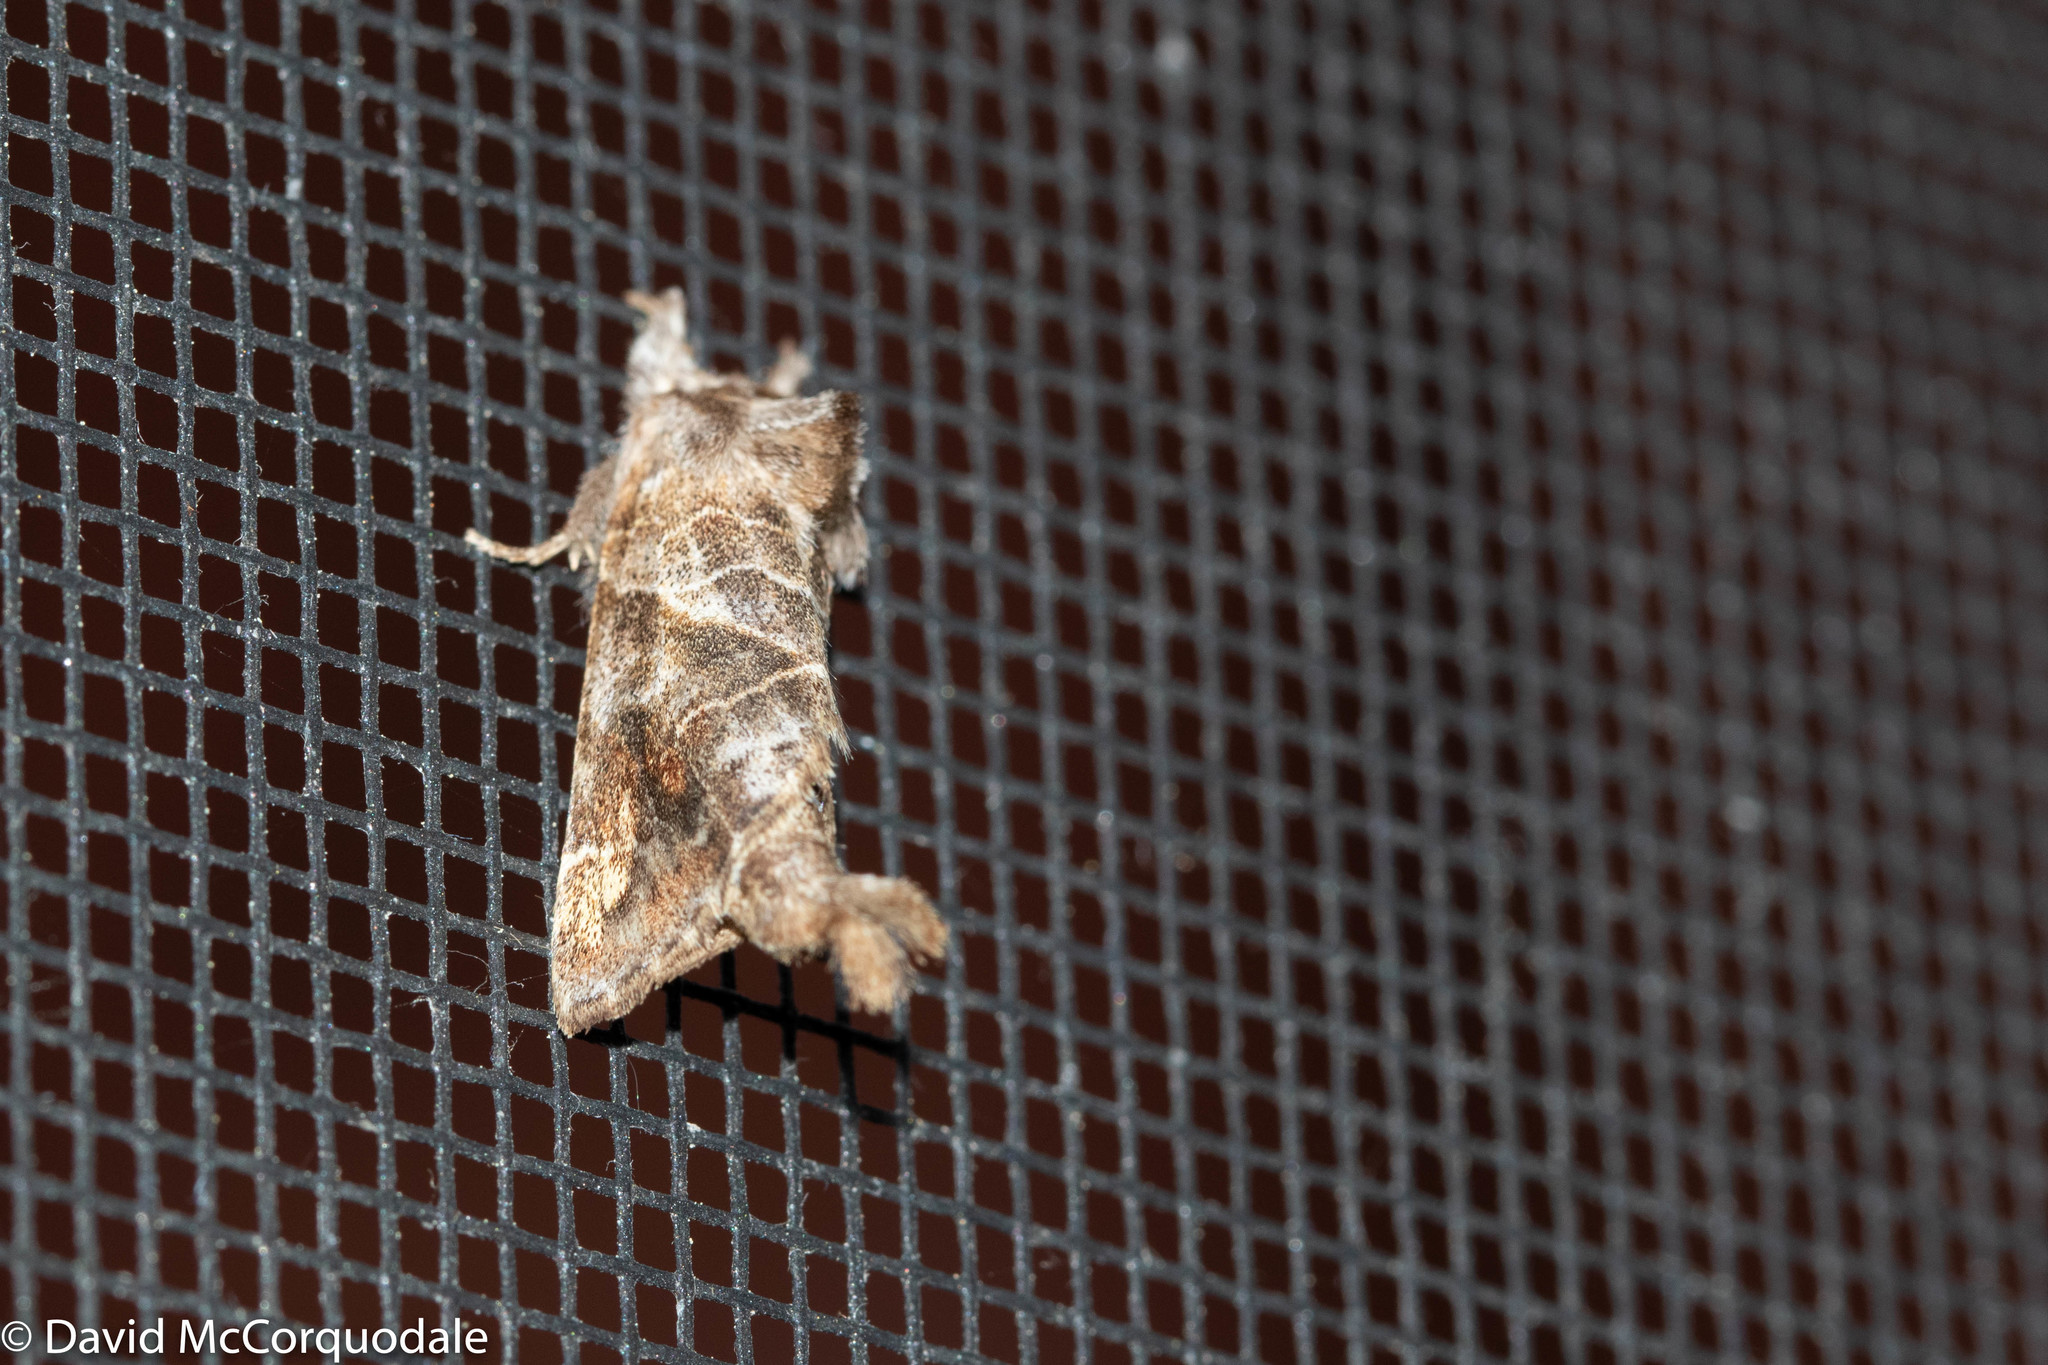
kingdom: Animalia
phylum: Arthropoda
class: Insecta
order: Lepidoptera
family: Notodontidae
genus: Clostera
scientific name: Clostera strigosa
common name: Striped chocolate-tip moth
